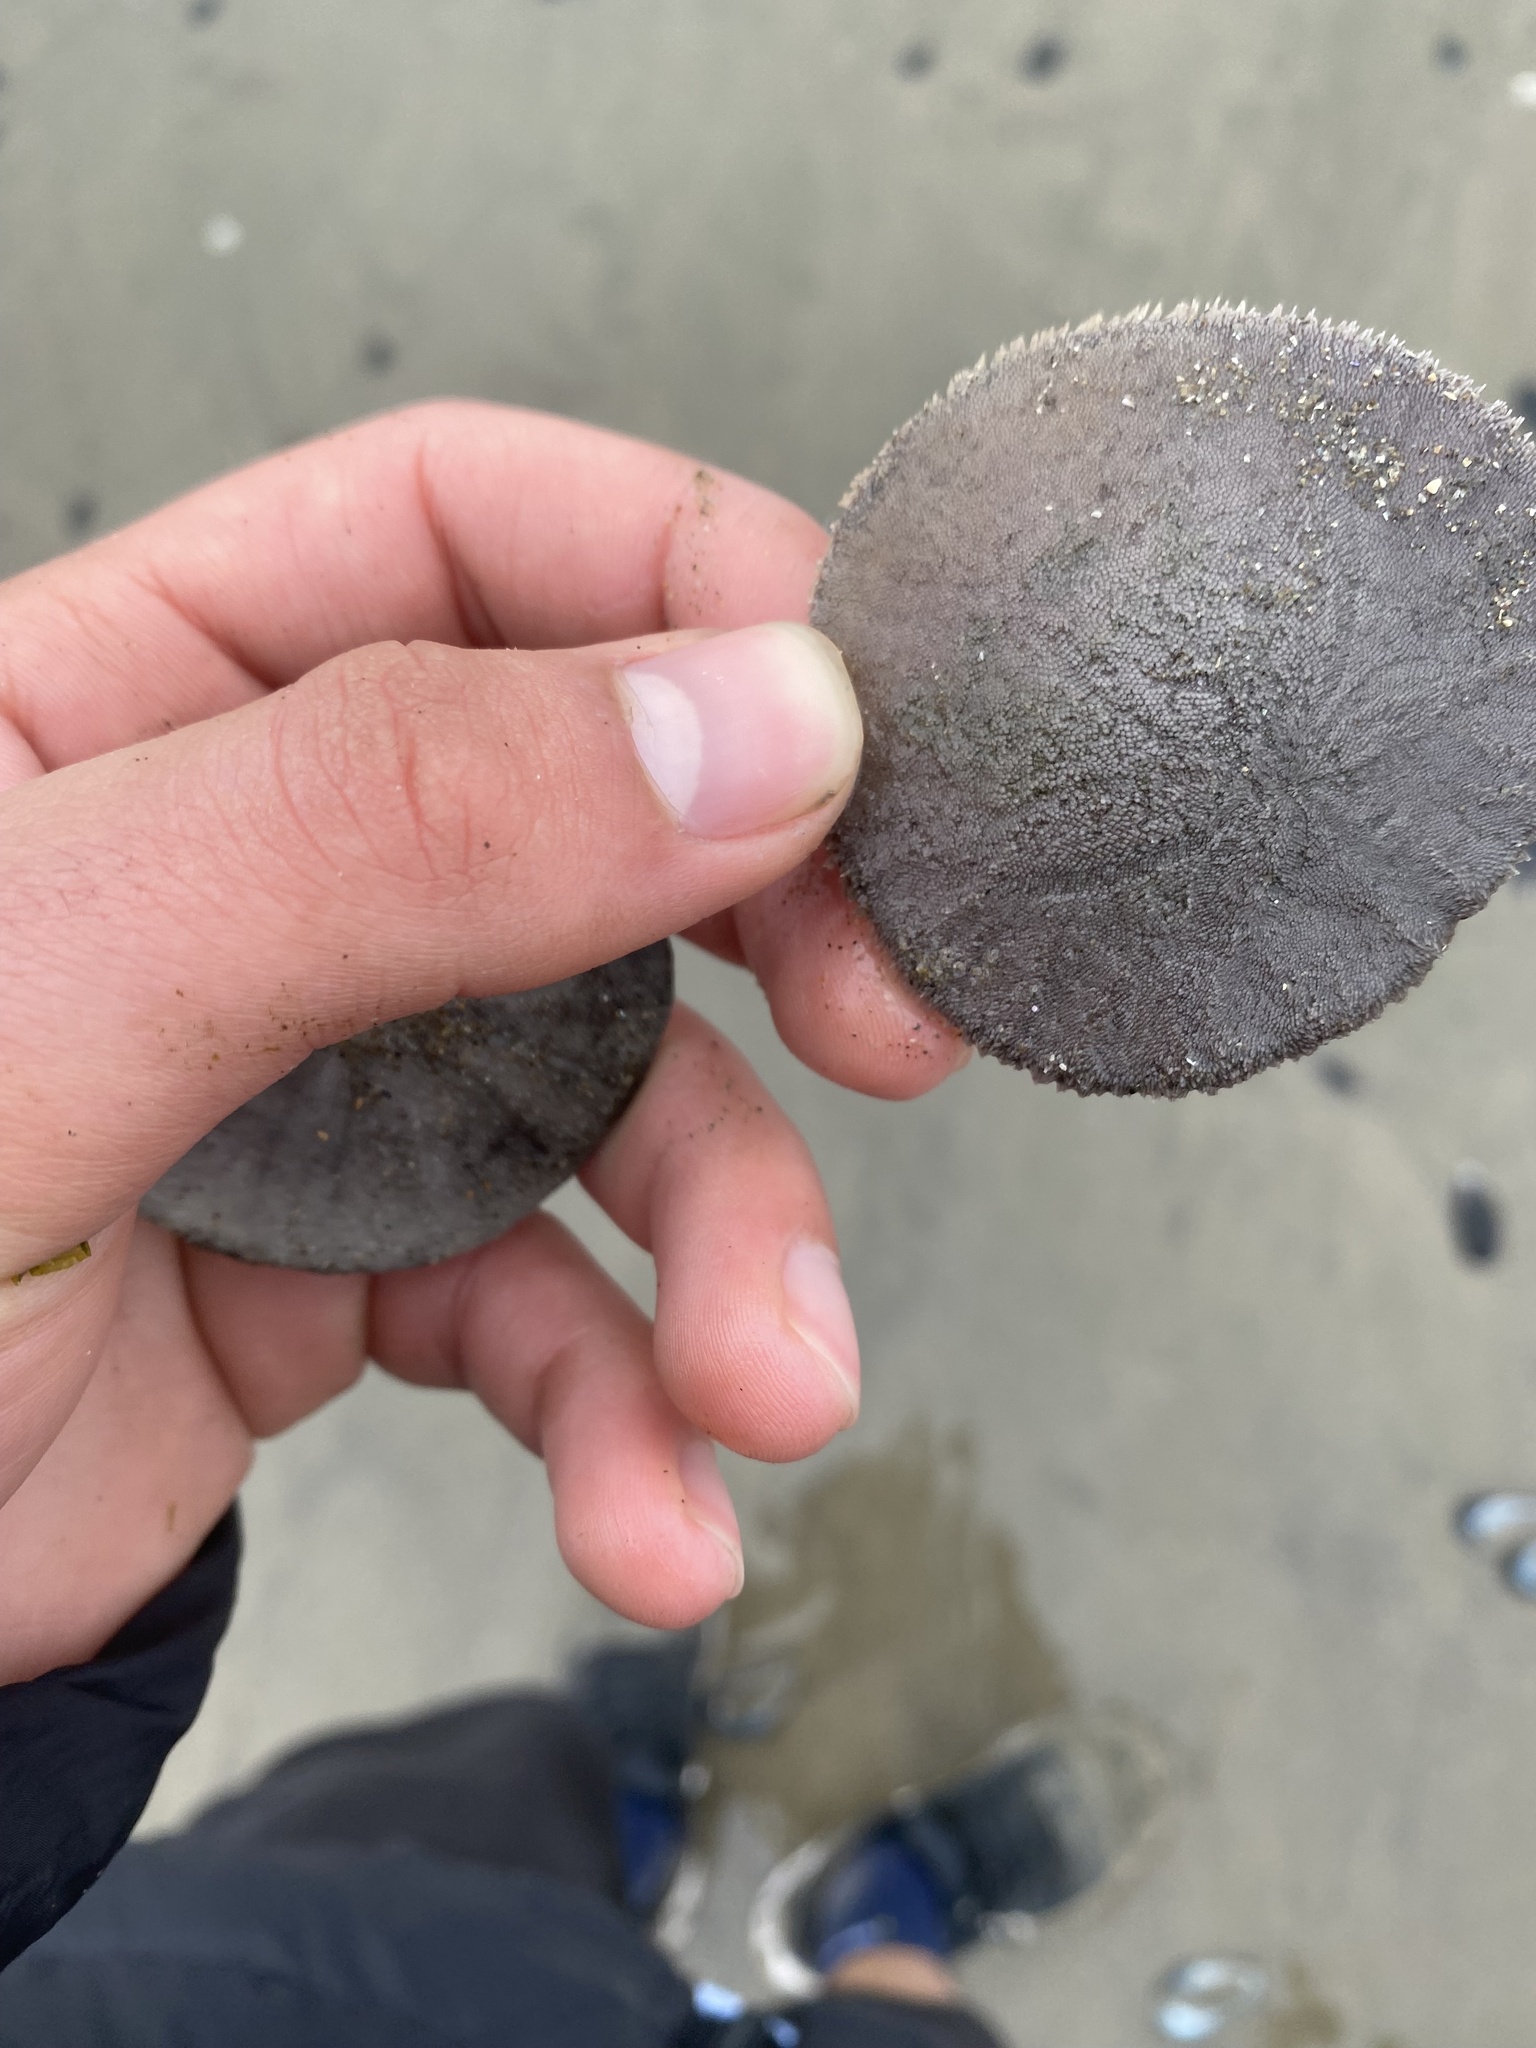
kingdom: Animalia
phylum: Echinodermata
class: Echinoidea
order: Echinolampadacea
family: Dendrasteridae
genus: Dendraster
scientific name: Dendraster excentricus
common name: Eccentric sand dollar sea urchin
